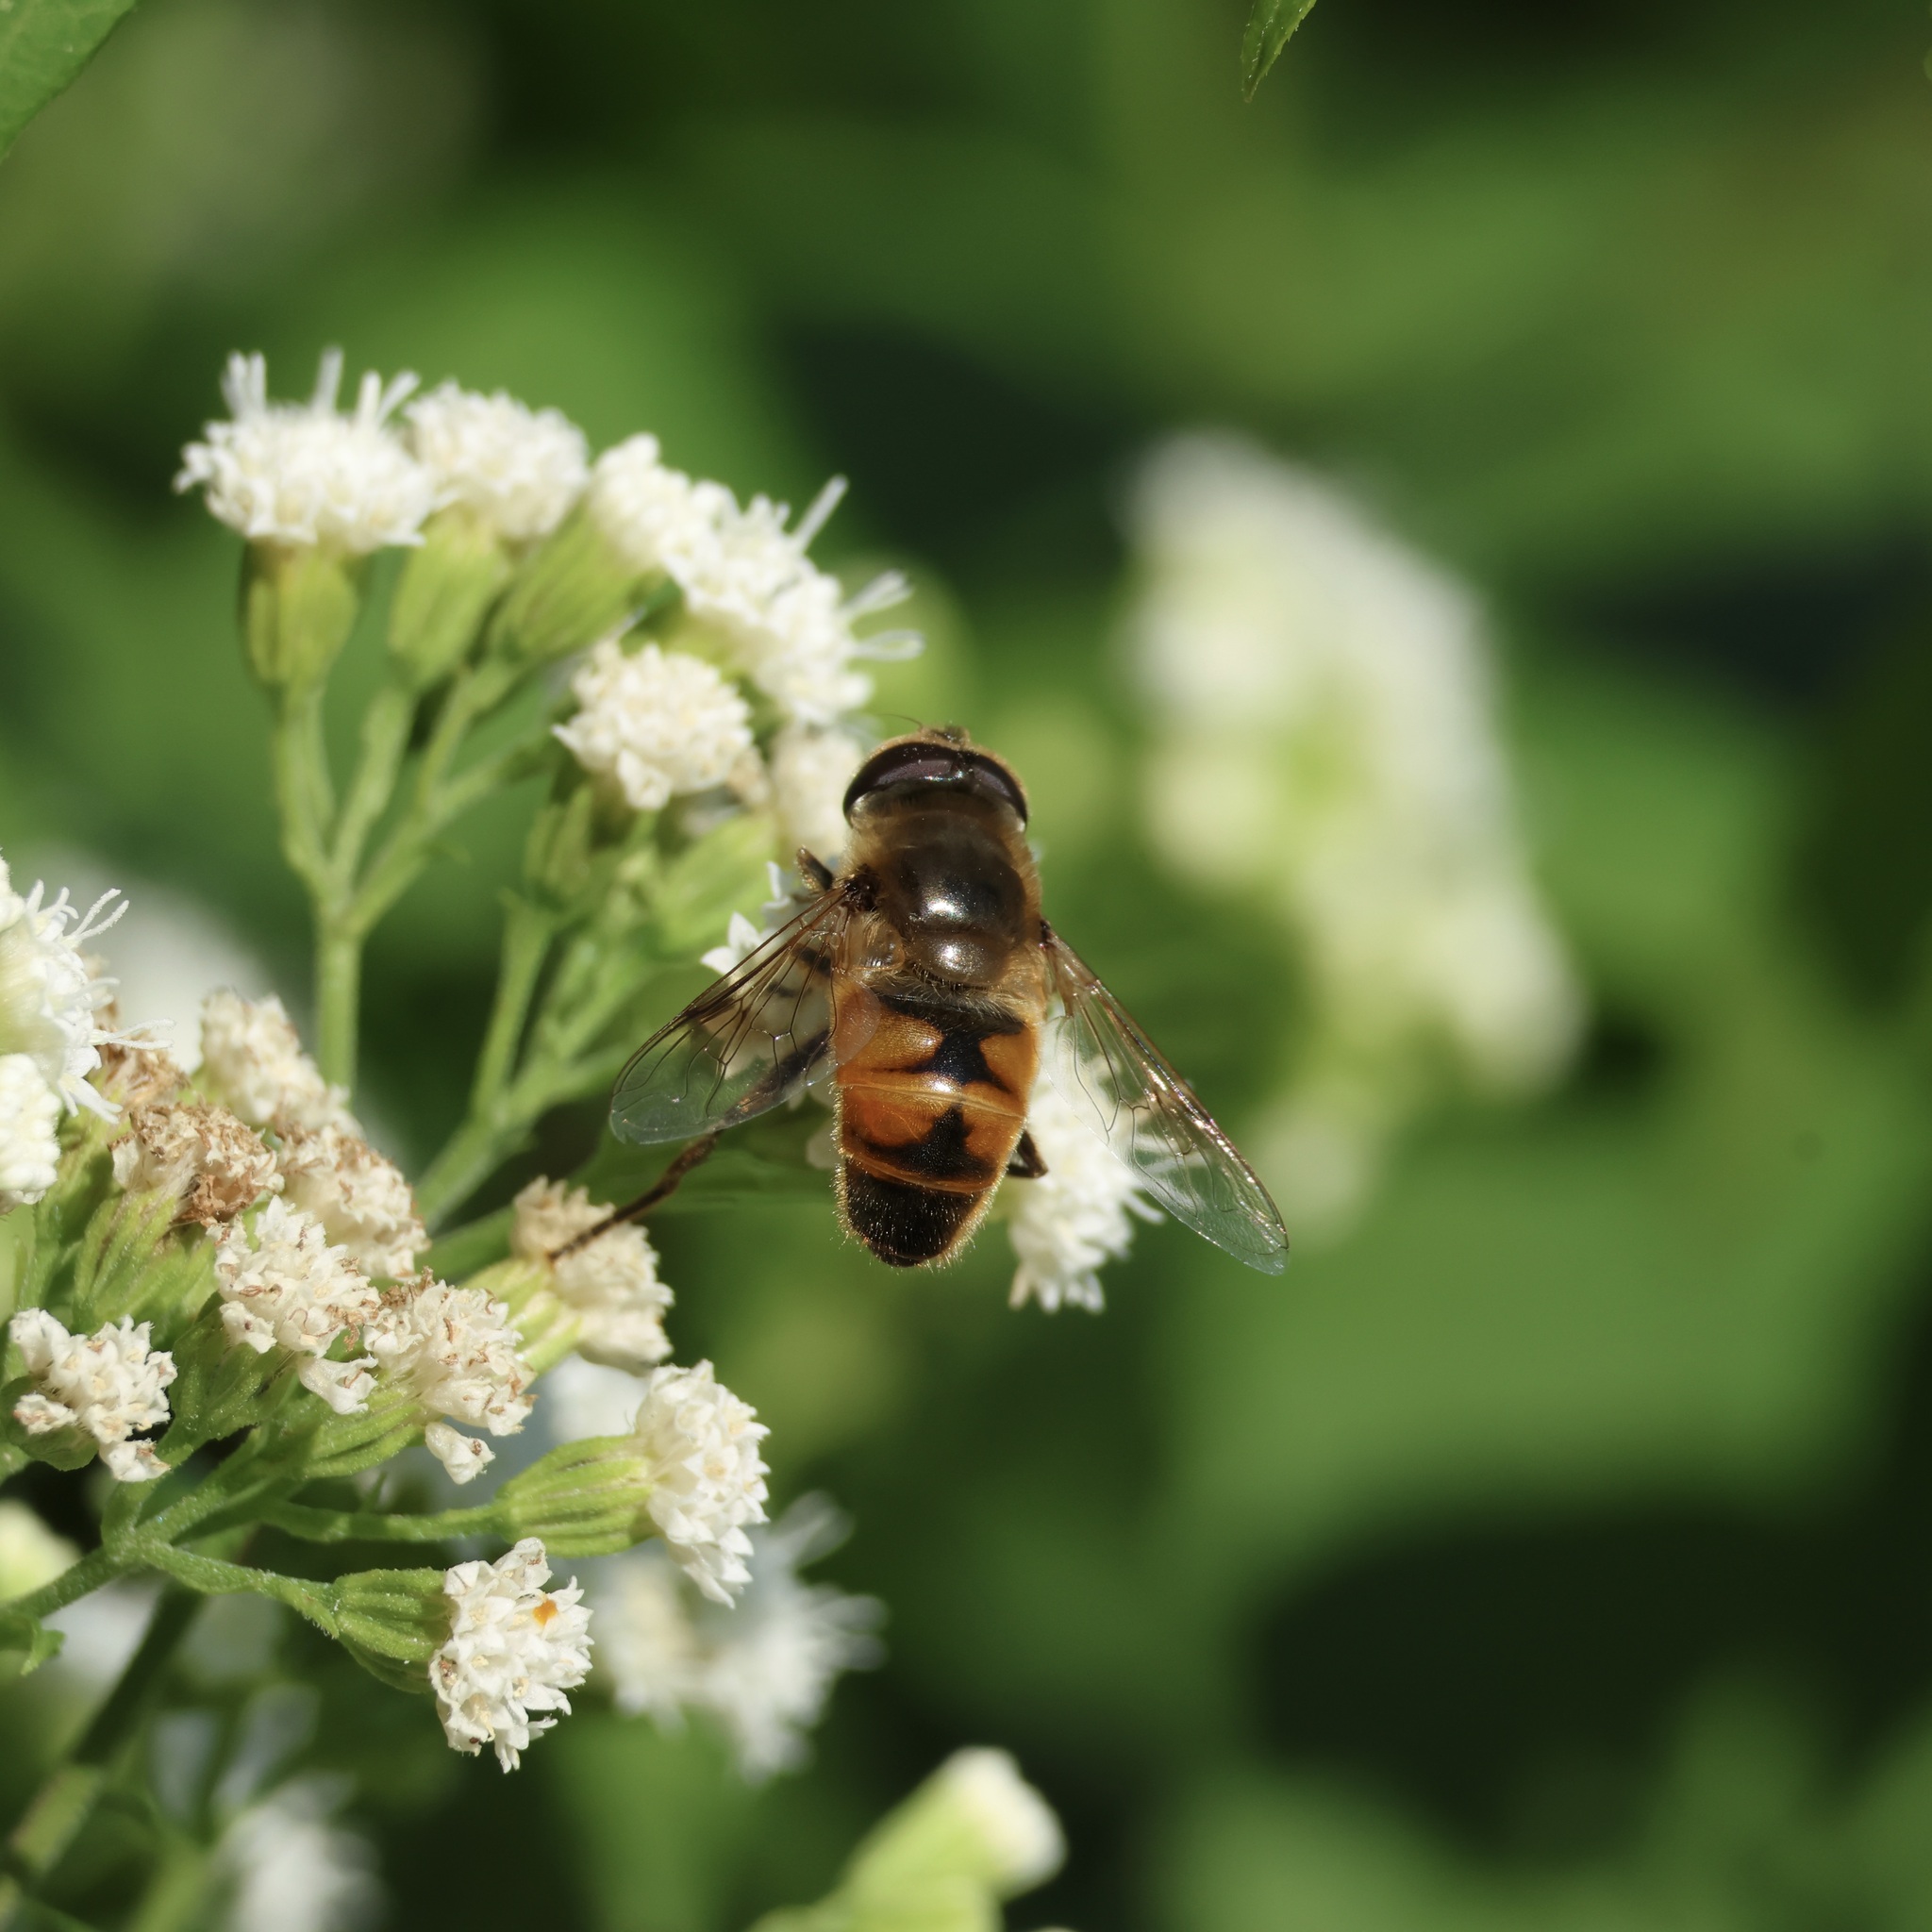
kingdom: Animalia
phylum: Arthropoda
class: Insecta
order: Diptera
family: Syrphidae
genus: Eristalis
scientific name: Eristalis tenax
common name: Drone fly
